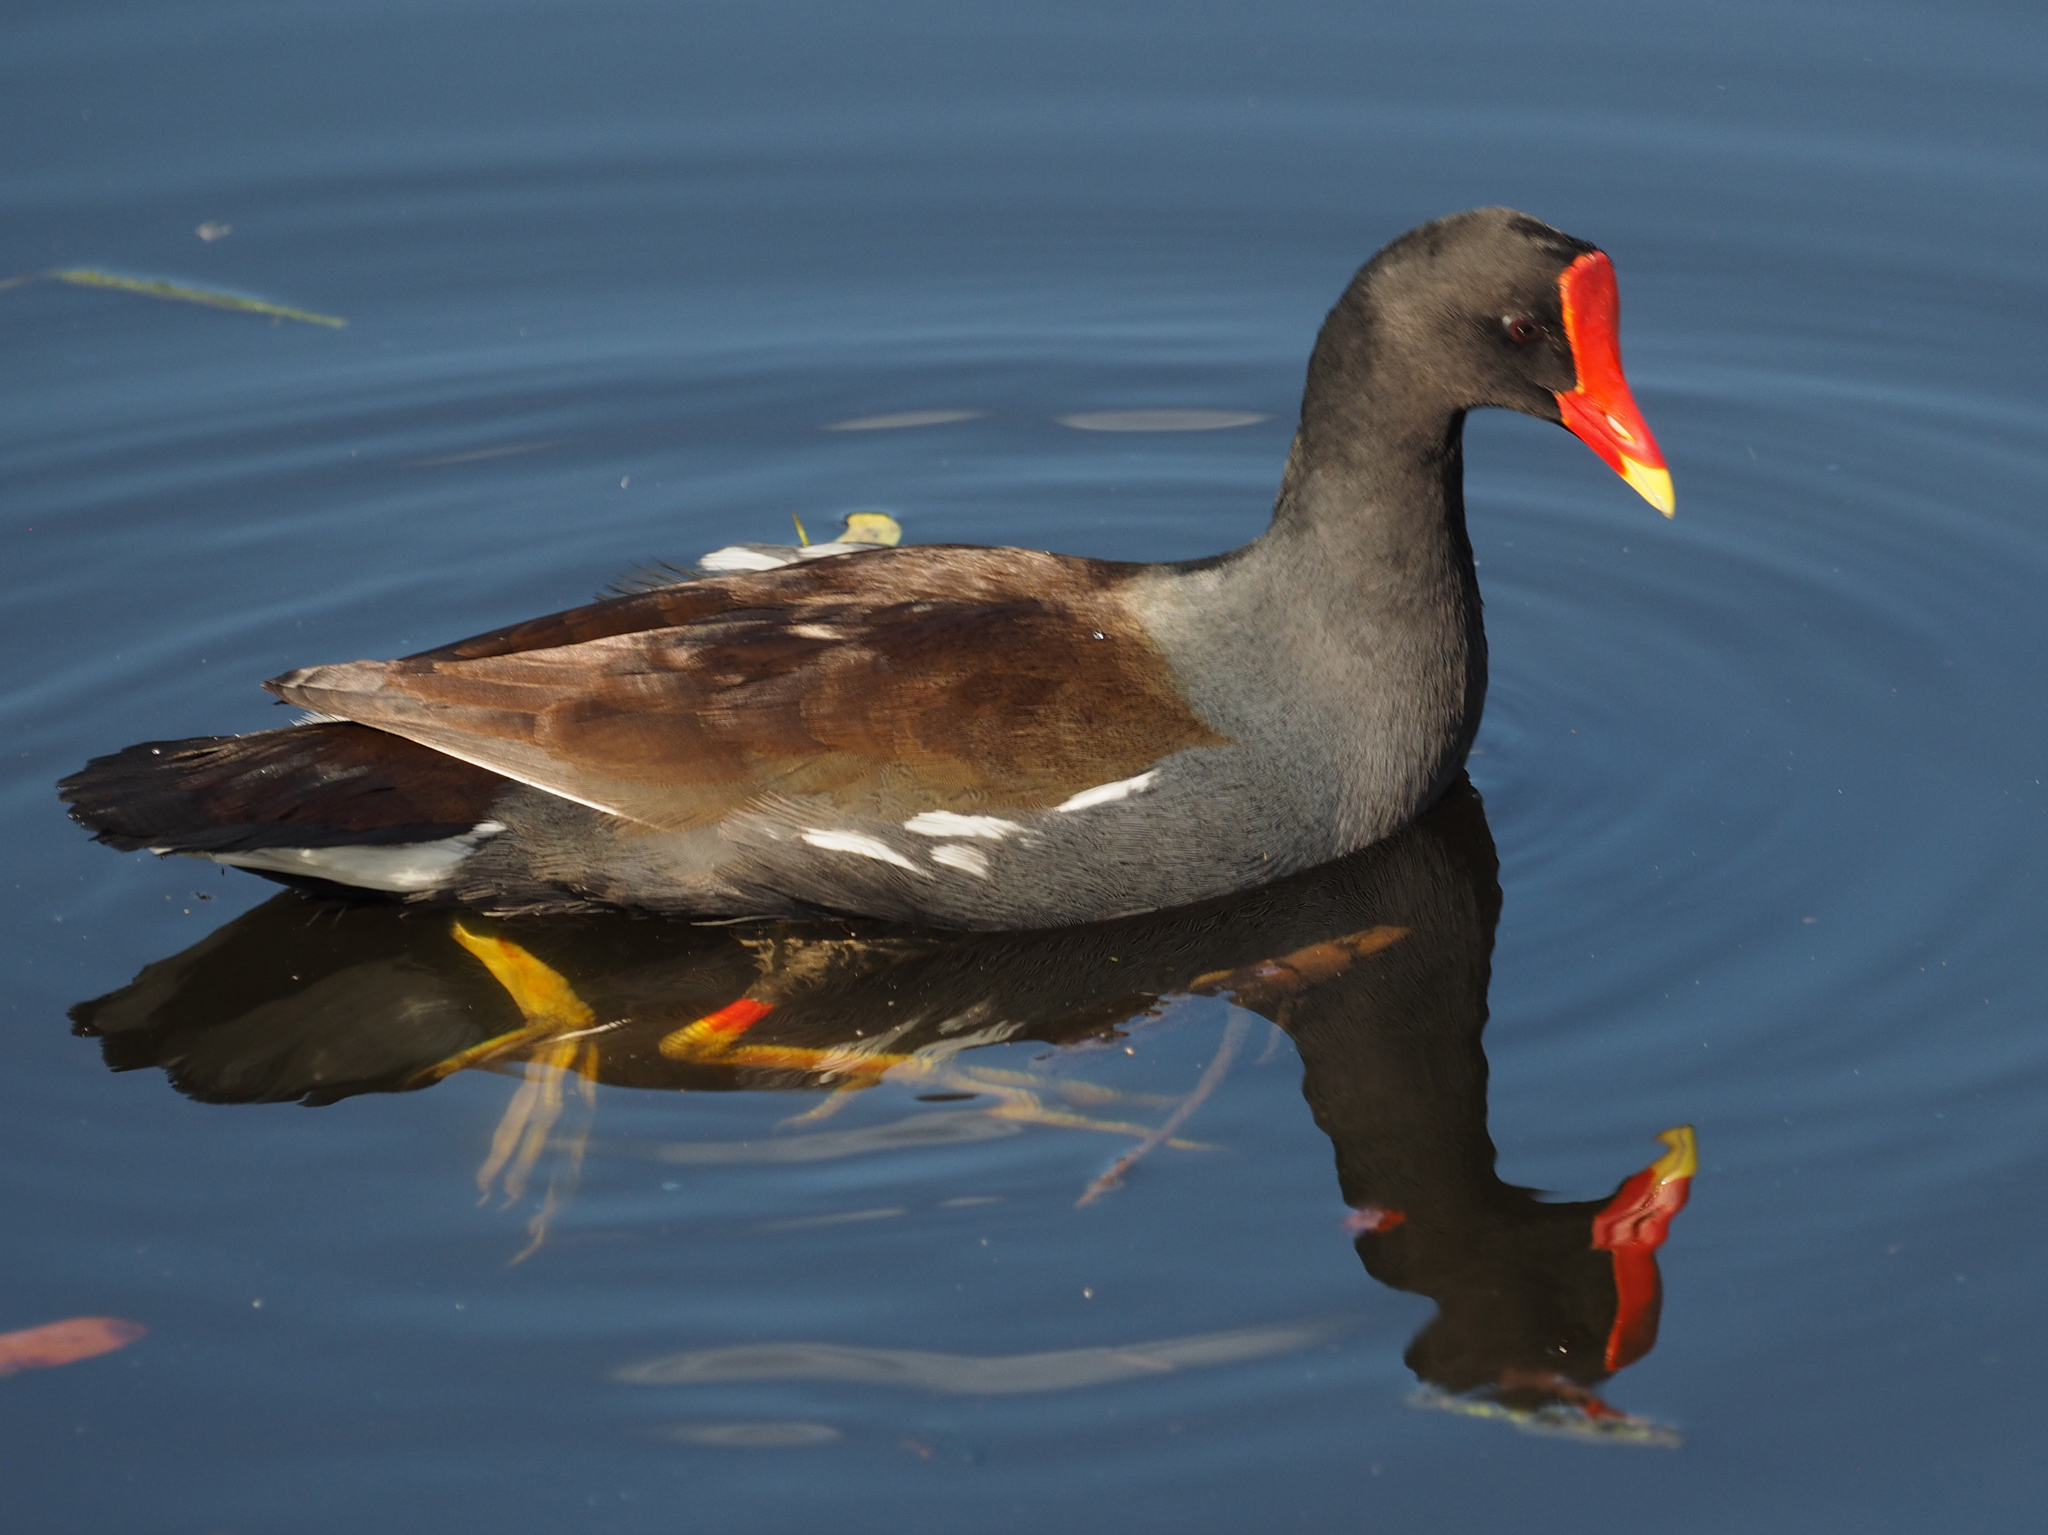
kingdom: Animalia
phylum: Chordata
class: Aves
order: Gruiformes
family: Rallidae
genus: Gallinula
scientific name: Gallinula chloropus
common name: Common moorhen
